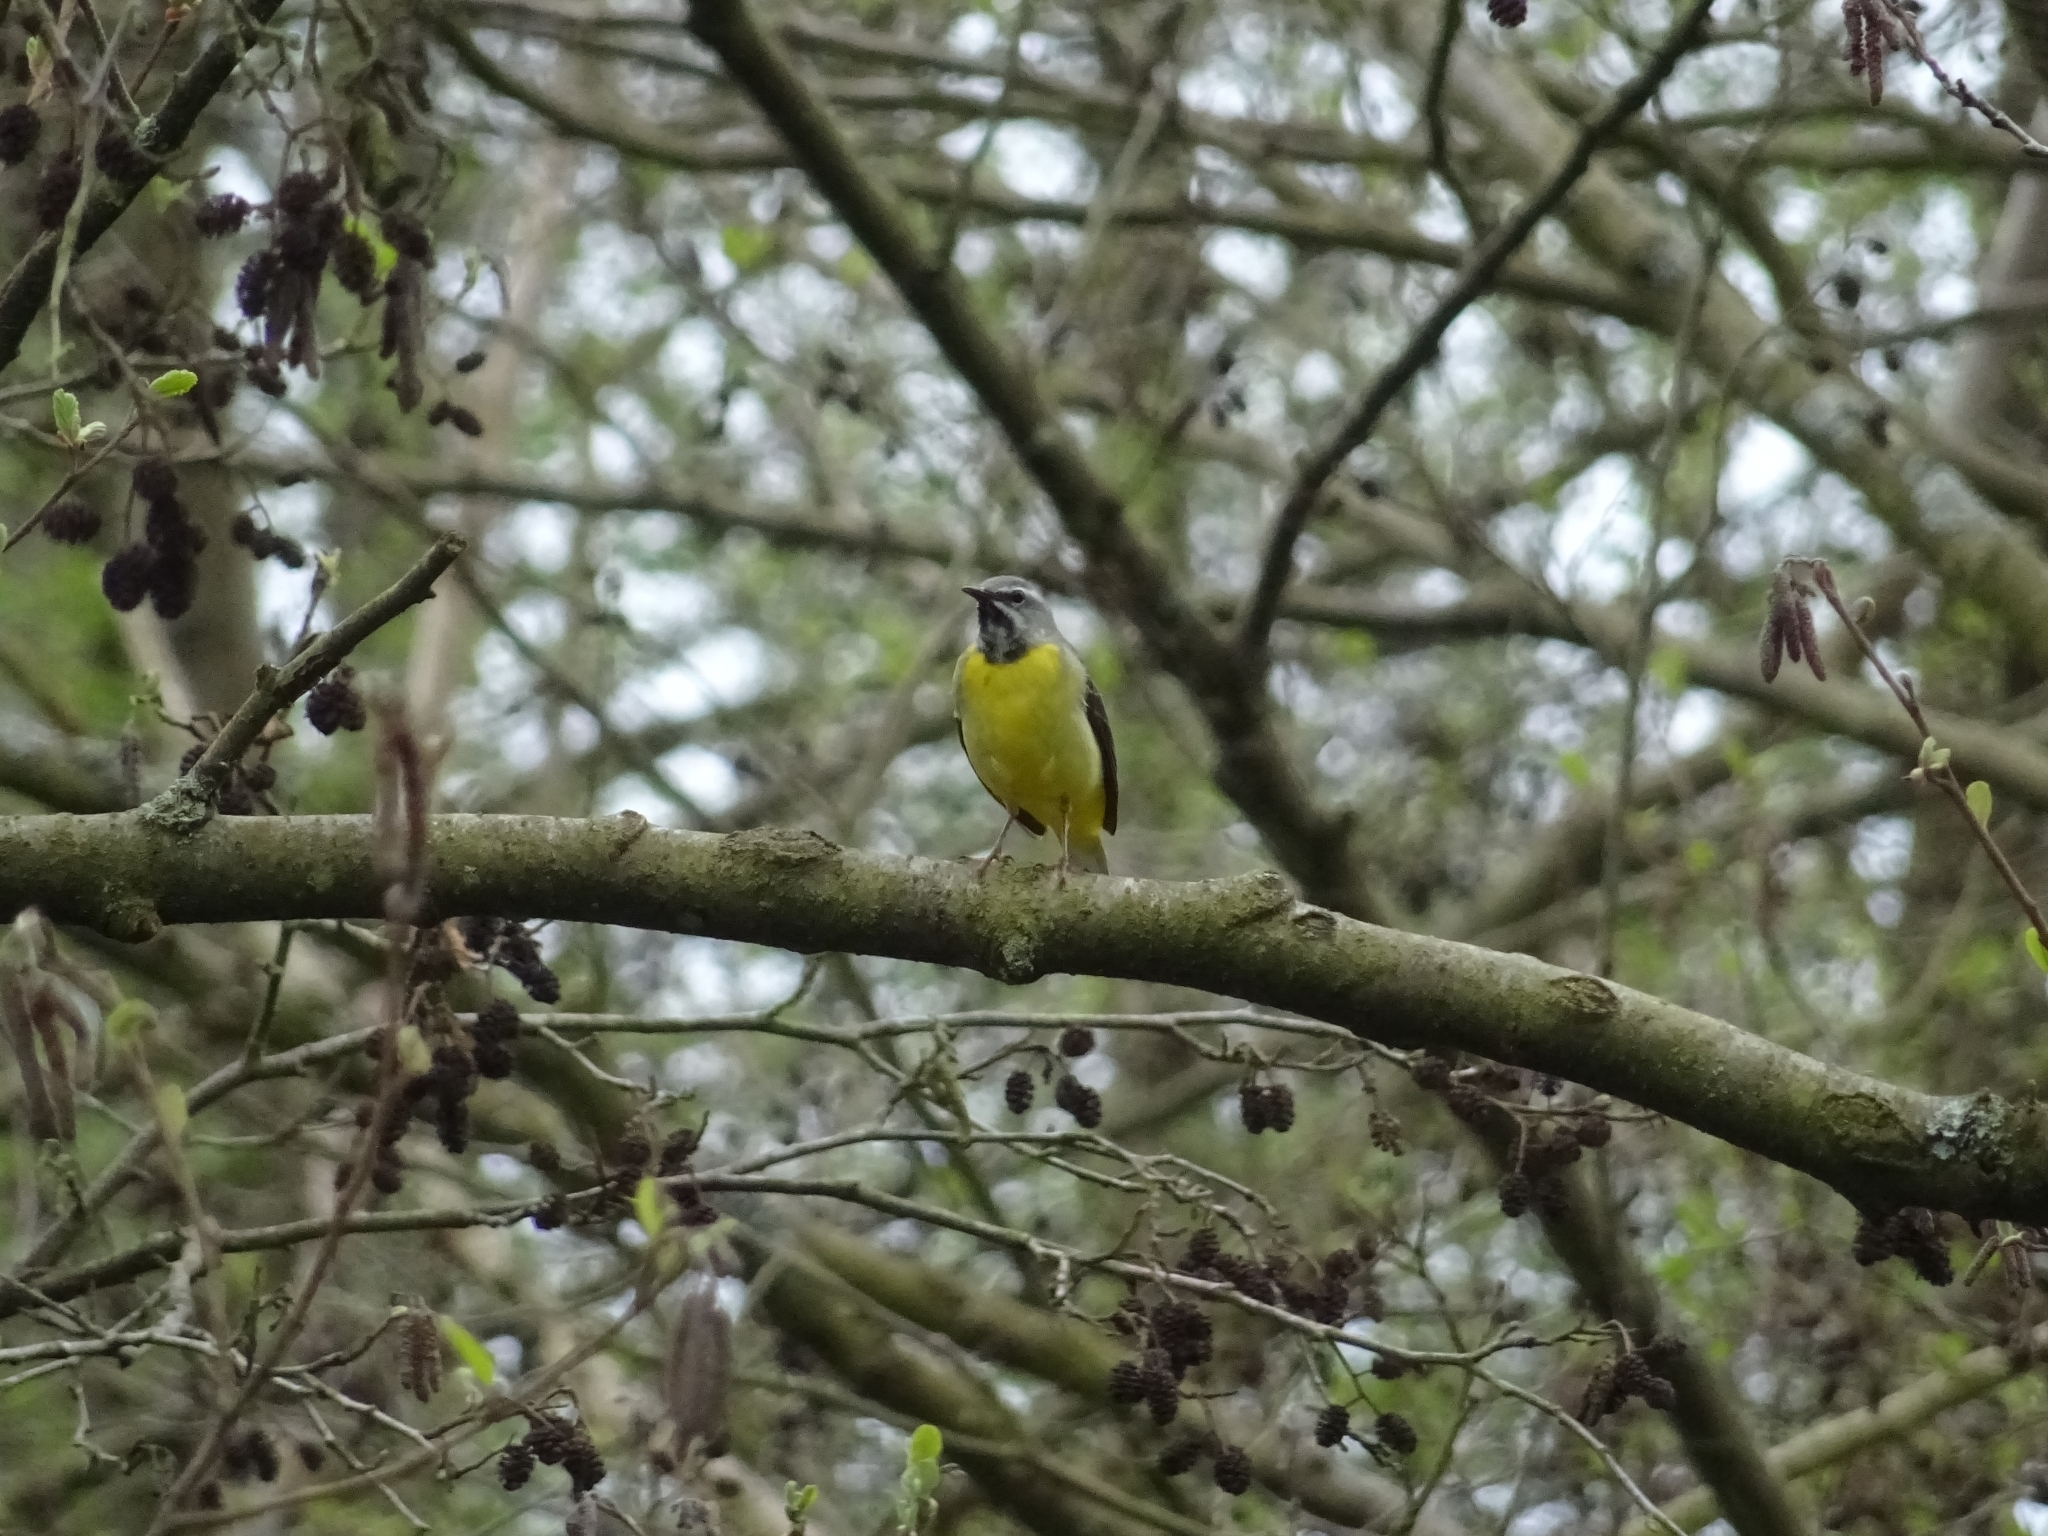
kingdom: Animalia
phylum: Chordata
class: Aves
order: Passeriformes
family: Motacillidae
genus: Motacilla
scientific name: Motacilla cinerea
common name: Grey wagtail
